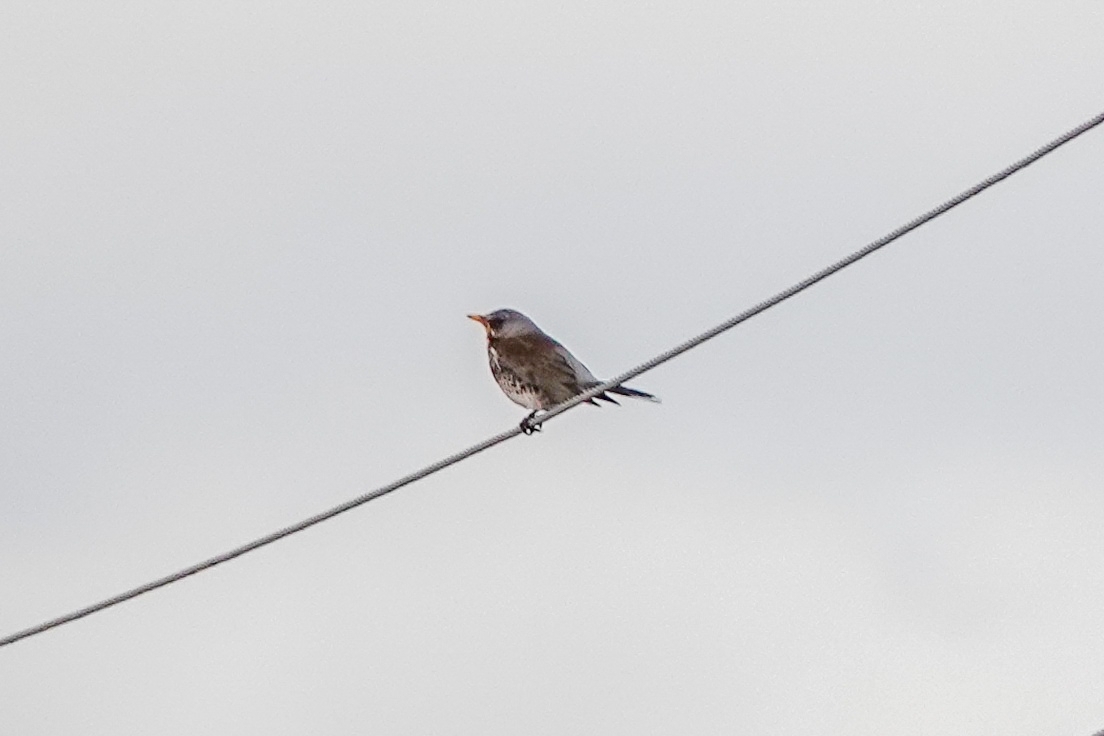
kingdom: Animalia
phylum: Chordata
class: Aves
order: Passeriformes
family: Turdidae
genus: Turdus
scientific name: Turdus pilaris
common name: Fieldfare
